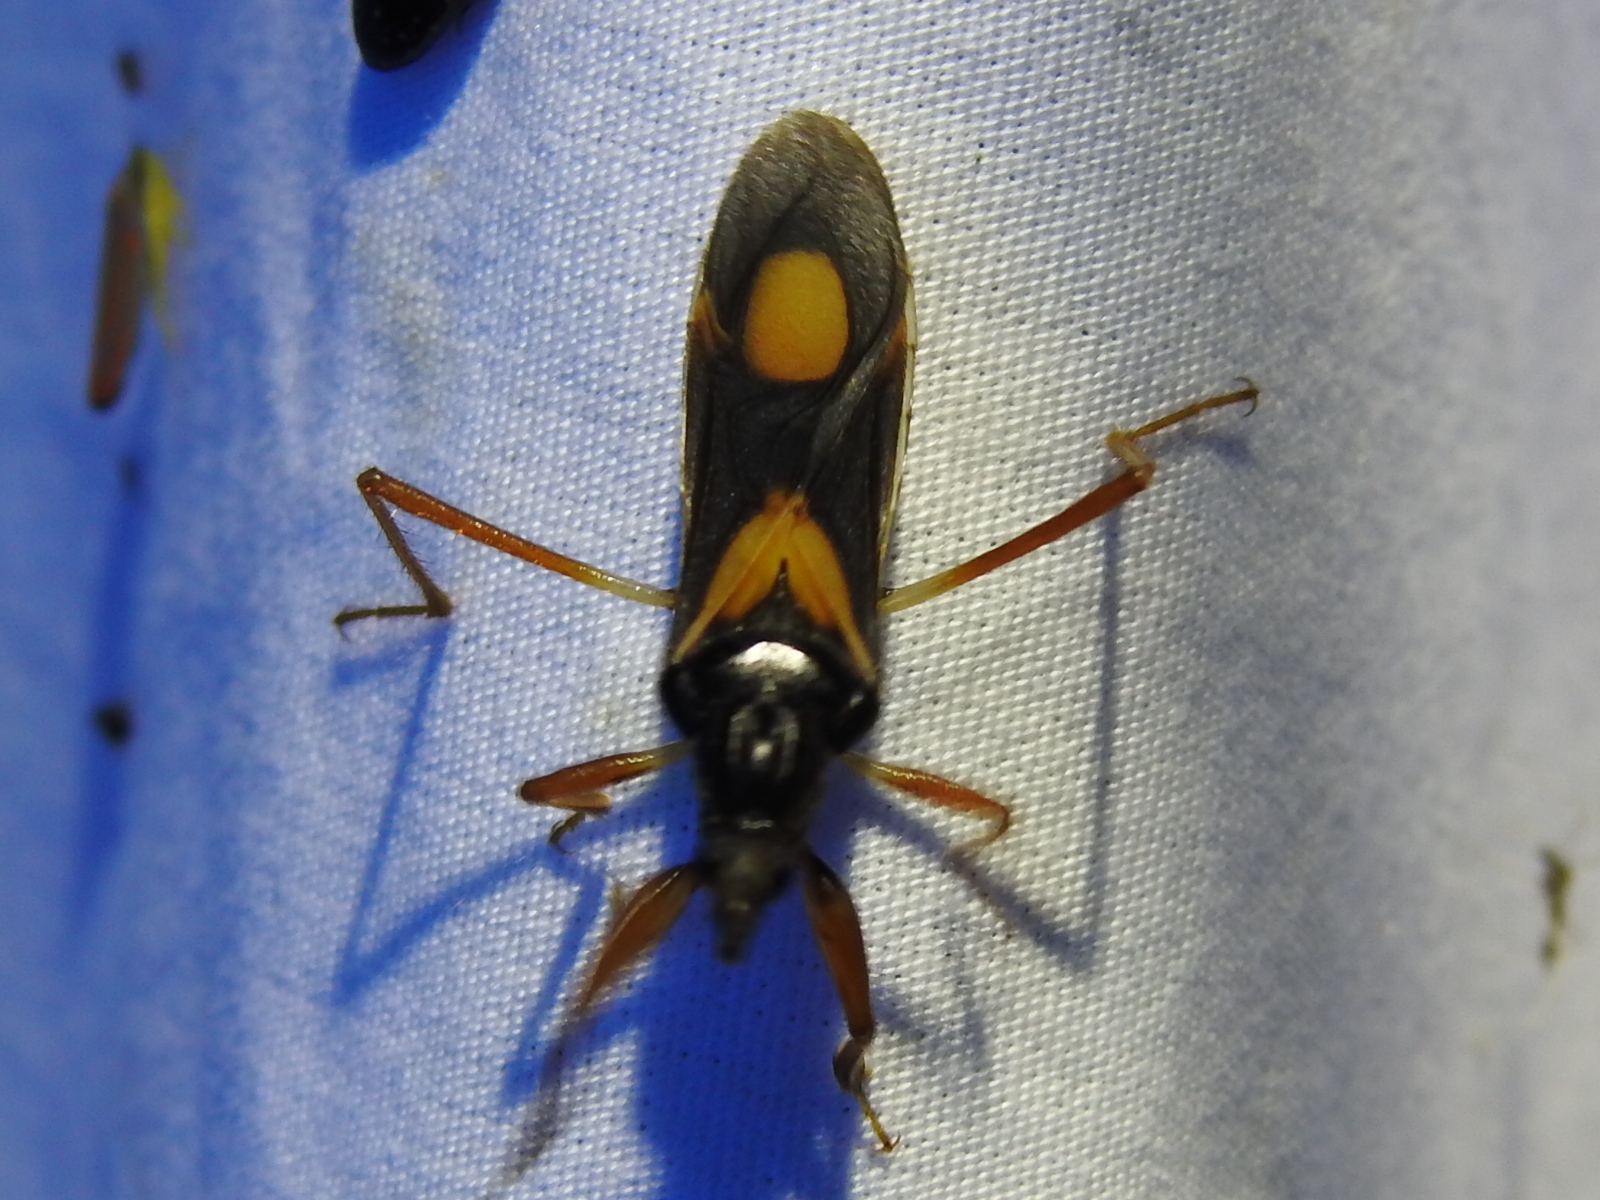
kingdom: Animalia
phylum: Arthropoda
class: Insecta
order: Hemiptera
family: Reduviidae
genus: Rasahus
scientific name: Rasahus hamatus
